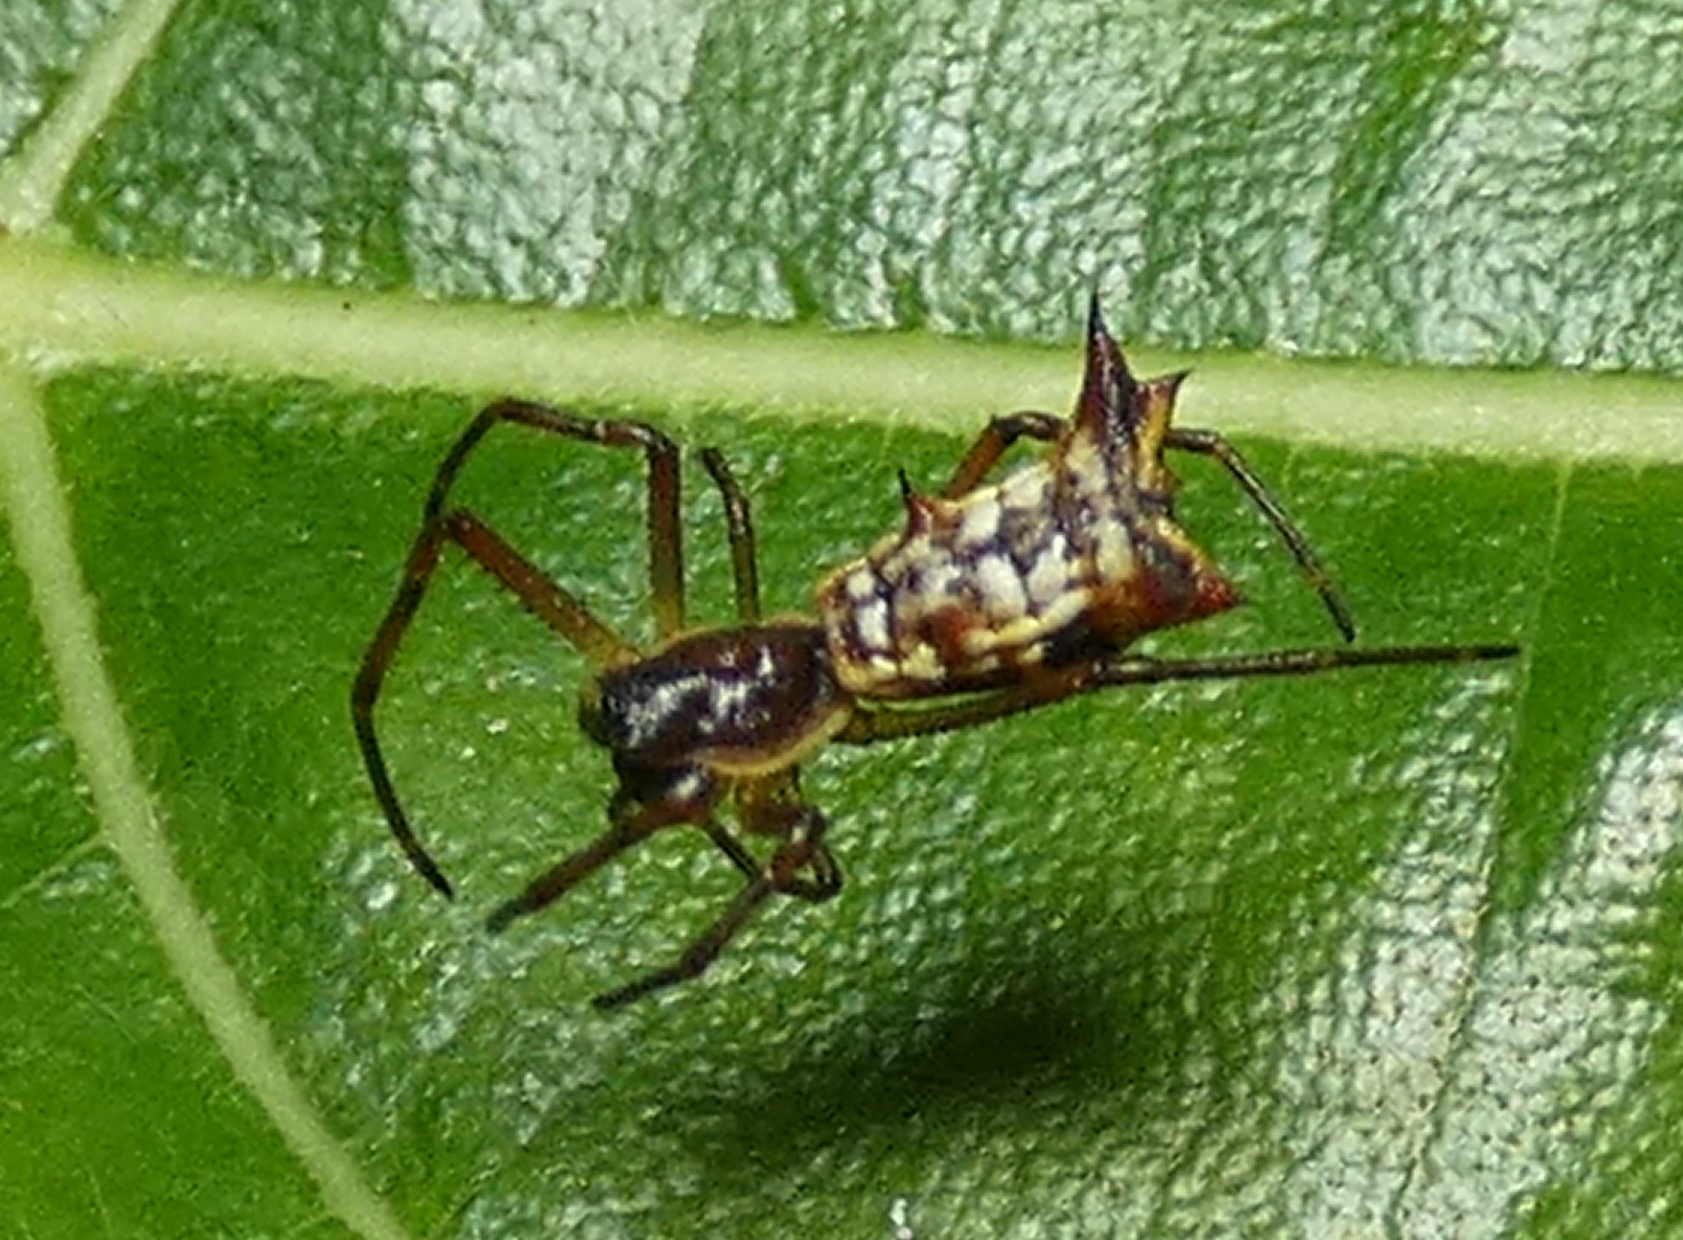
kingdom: Animalia
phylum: Arthropoda
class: Arachnida
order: Araneae
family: Araneidae
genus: Micrathena
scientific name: Micrathena fissispina
